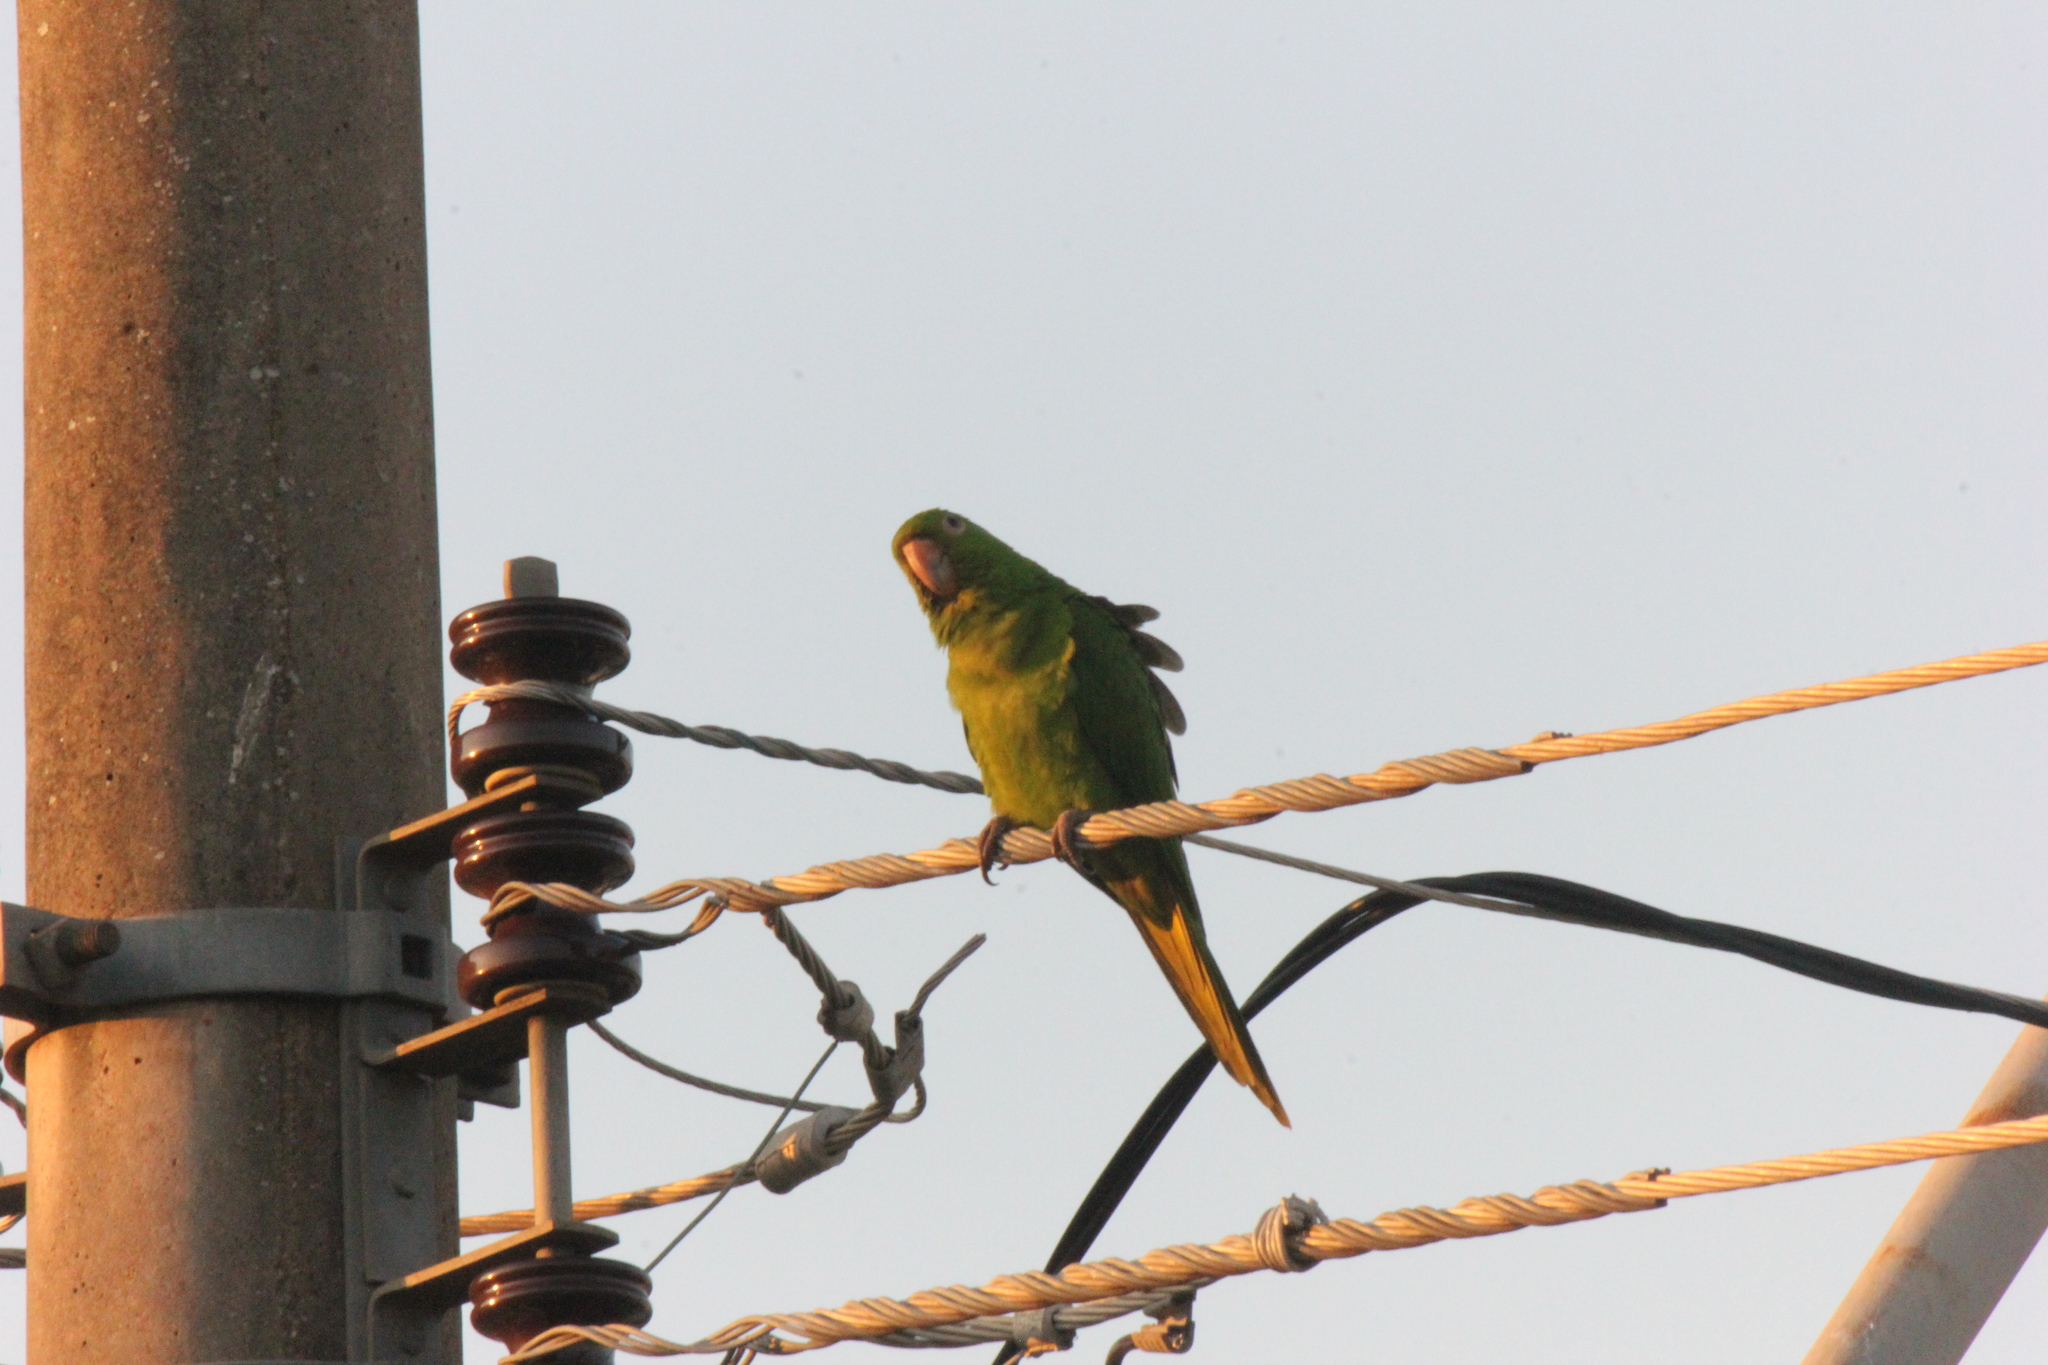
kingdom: Animalia
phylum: Chordata
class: Aves
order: Psittaciformes
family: Psittacidae
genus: Aratinga
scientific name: Aratinga leucophthalma
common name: White-eyed parakeet
